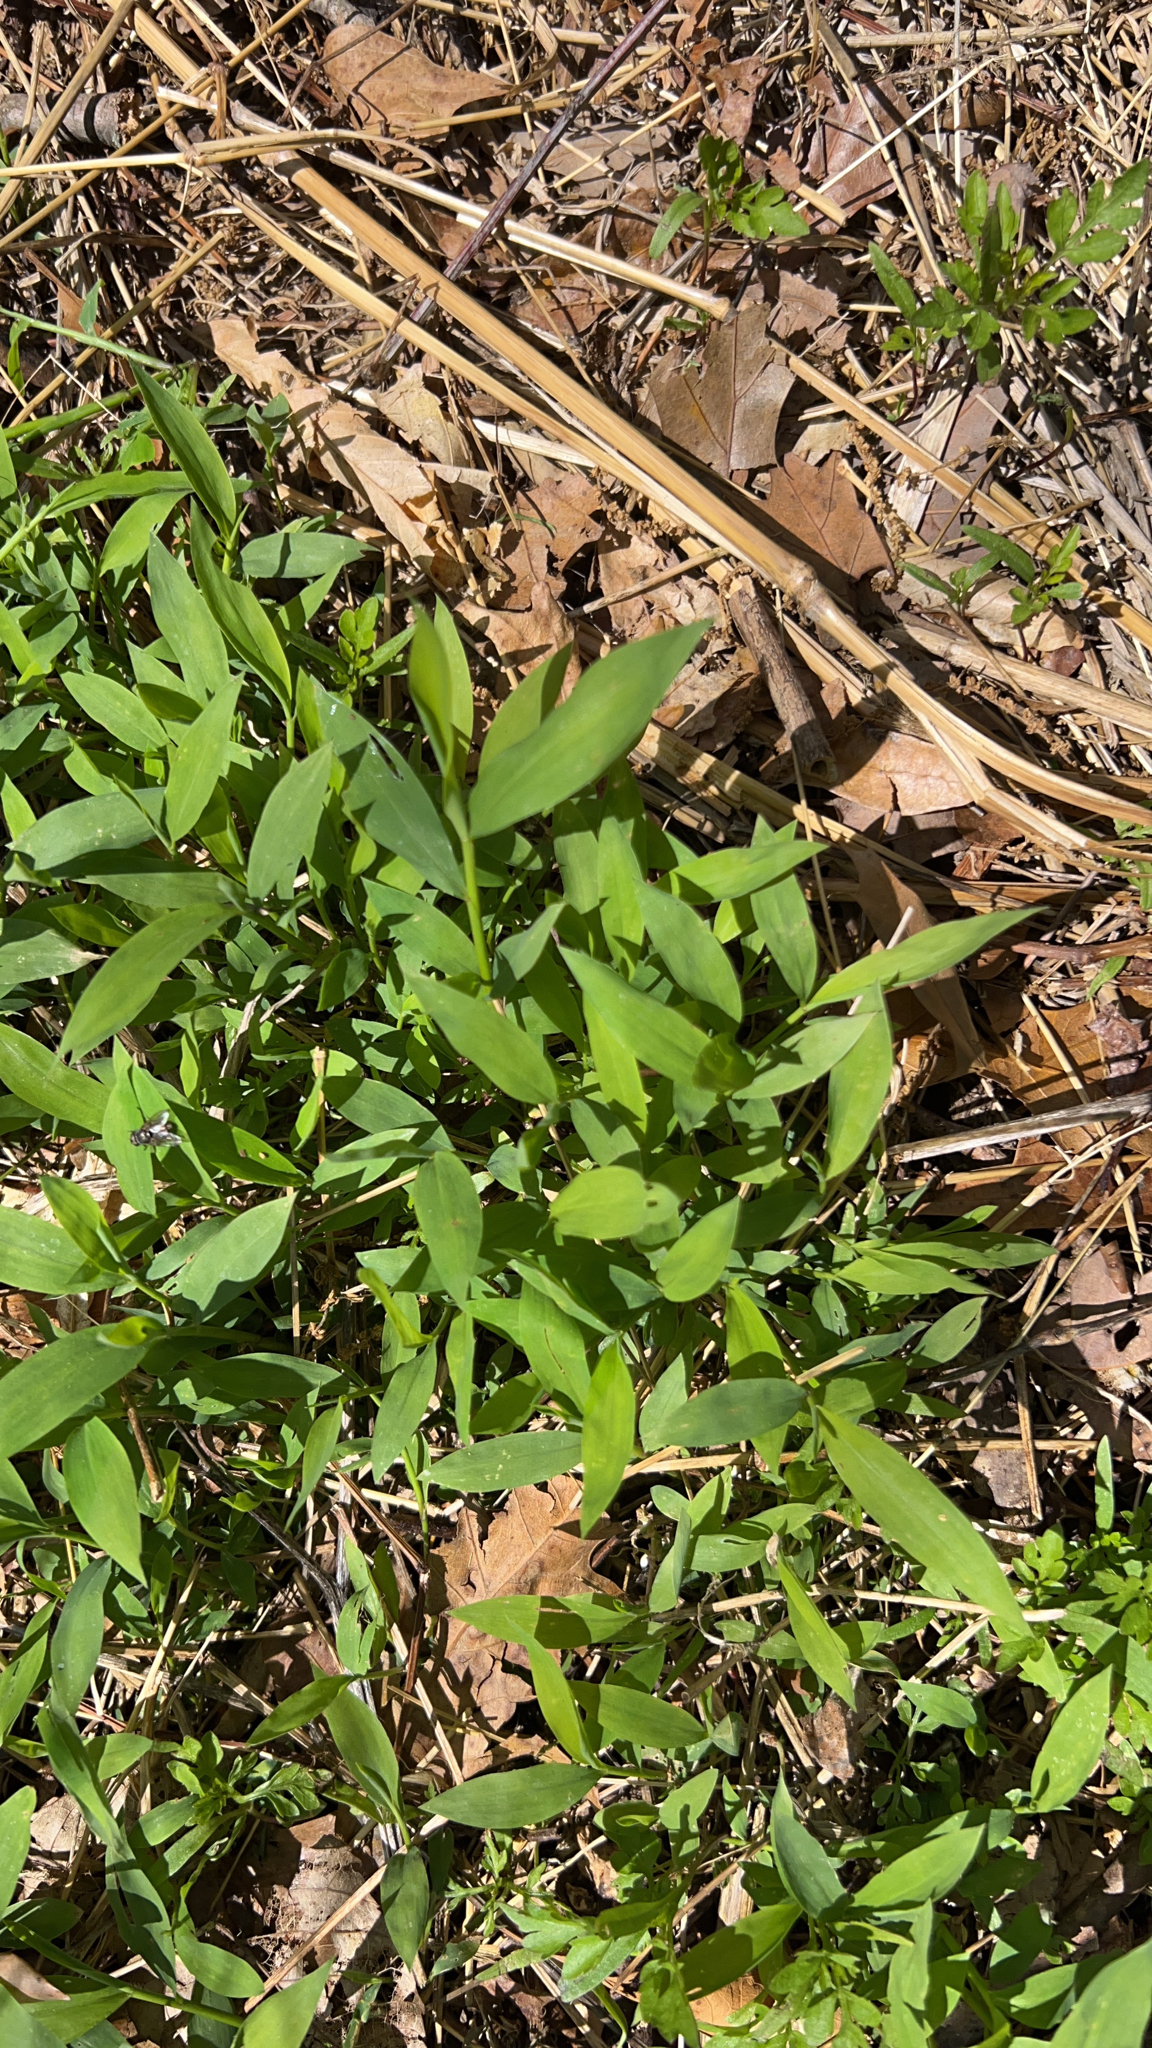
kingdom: Plantae
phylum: Tracheophyta
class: Liliopsida
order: Poales
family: Poaceae
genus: Microstegium
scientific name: Microstegium vimineum
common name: Japanese stiltgrass
